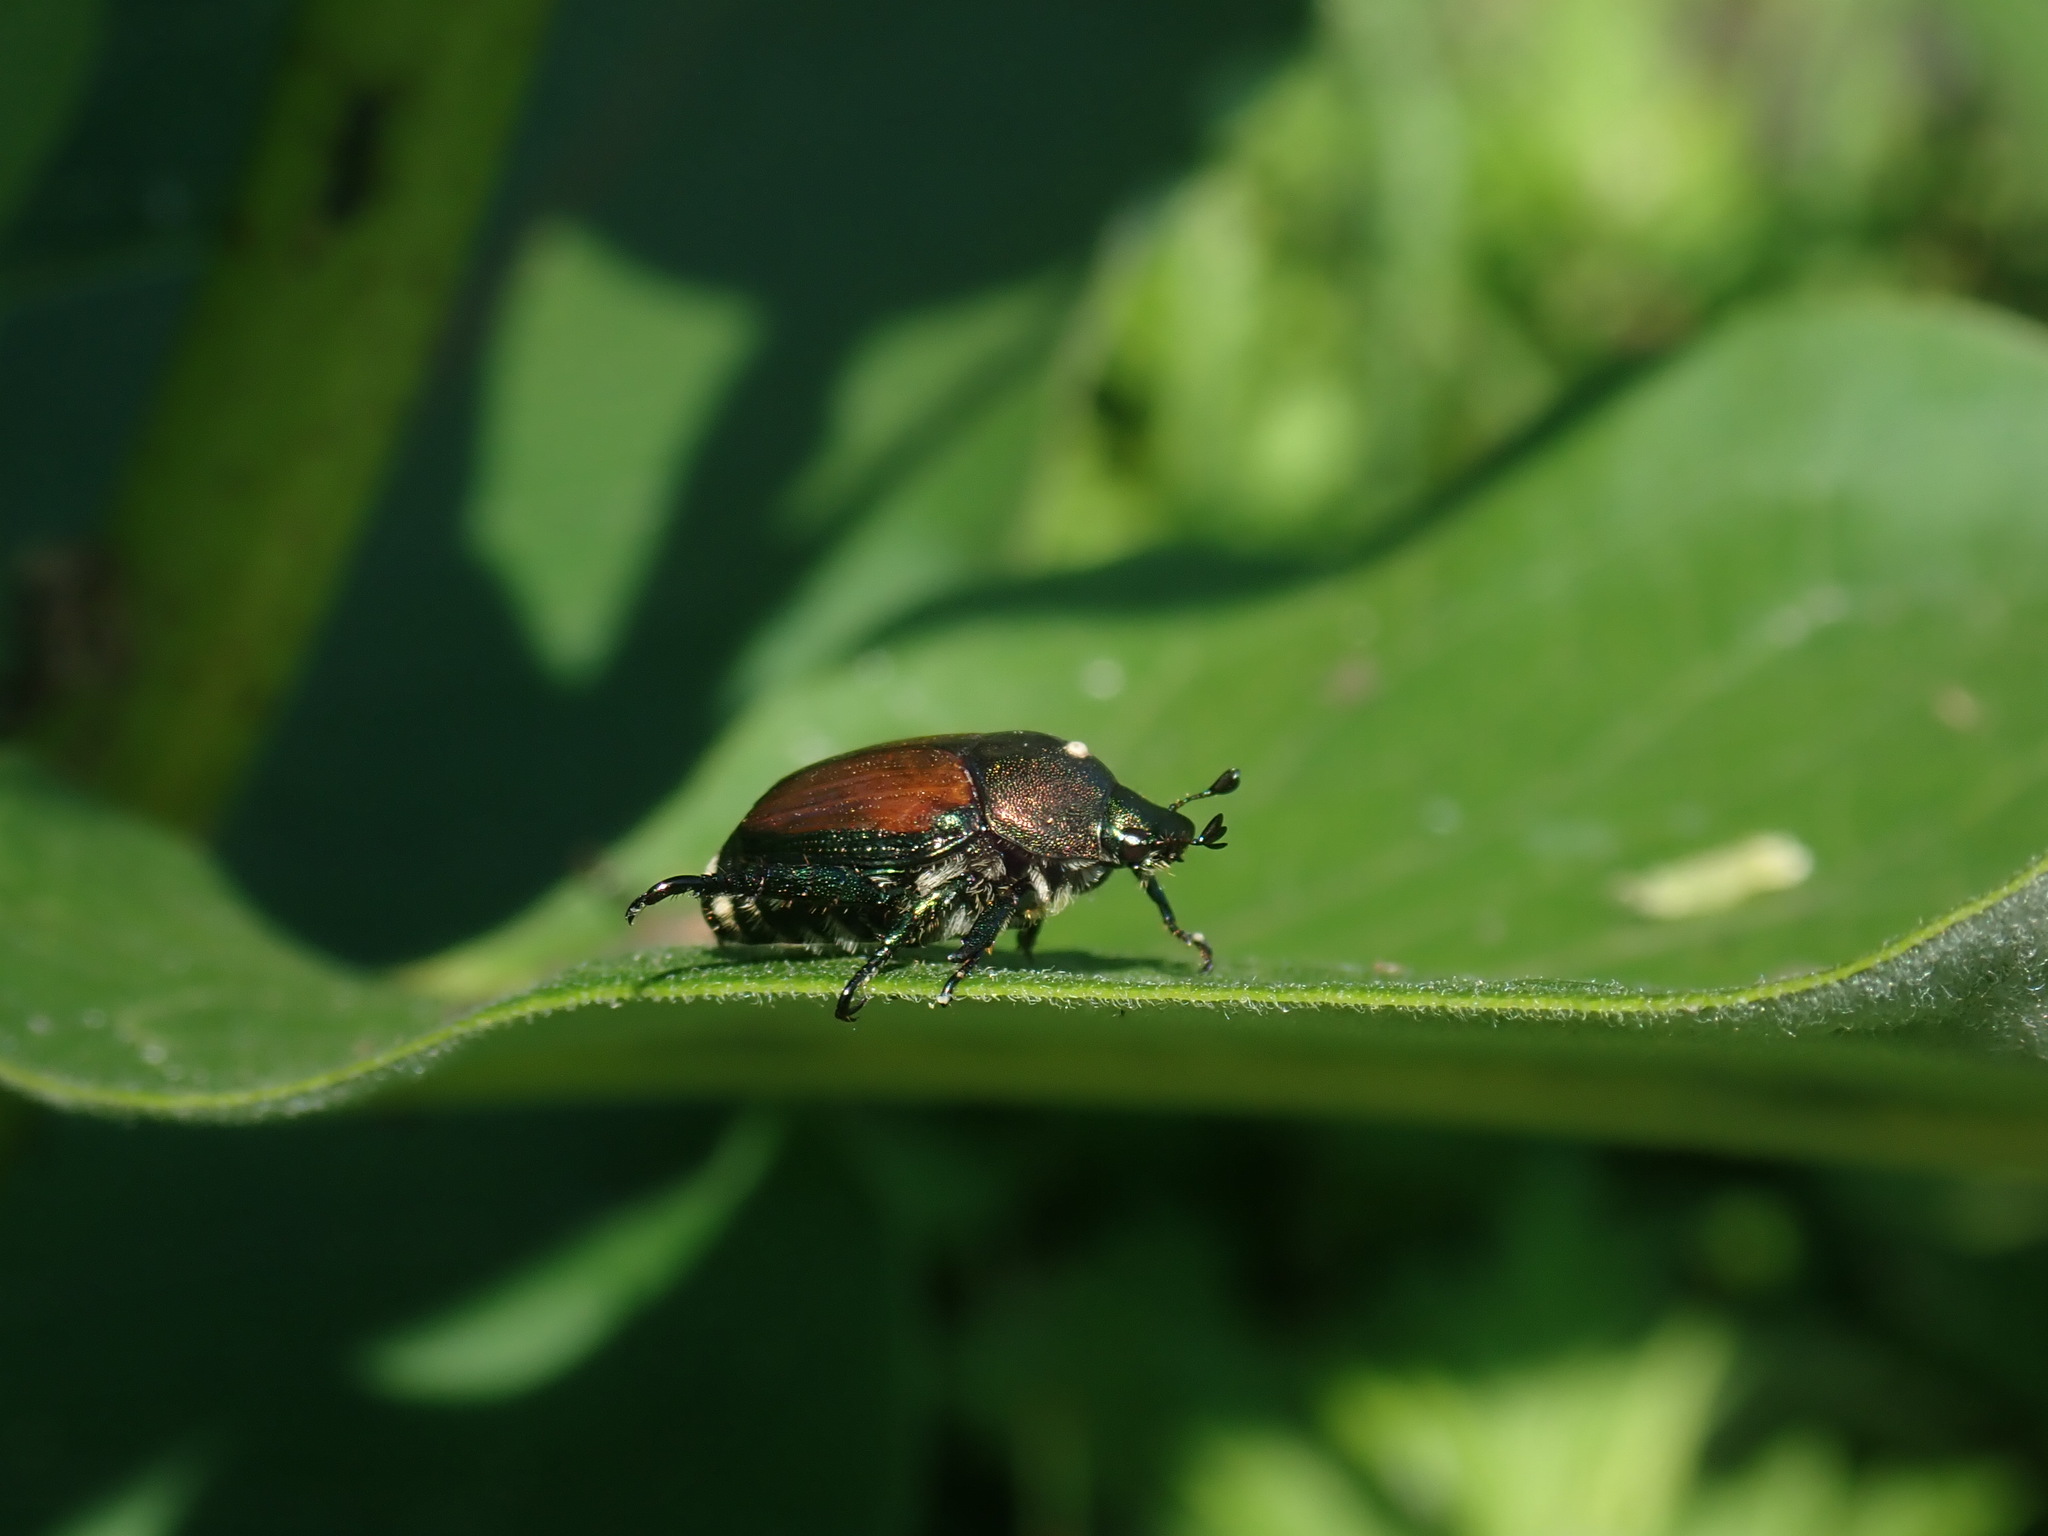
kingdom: Animalia
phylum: Arthropoda
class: Insecta
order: Coleoptera
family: Scarabaeidae
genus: Popillia
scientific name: Popillia japonica
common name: Japanese beetle
